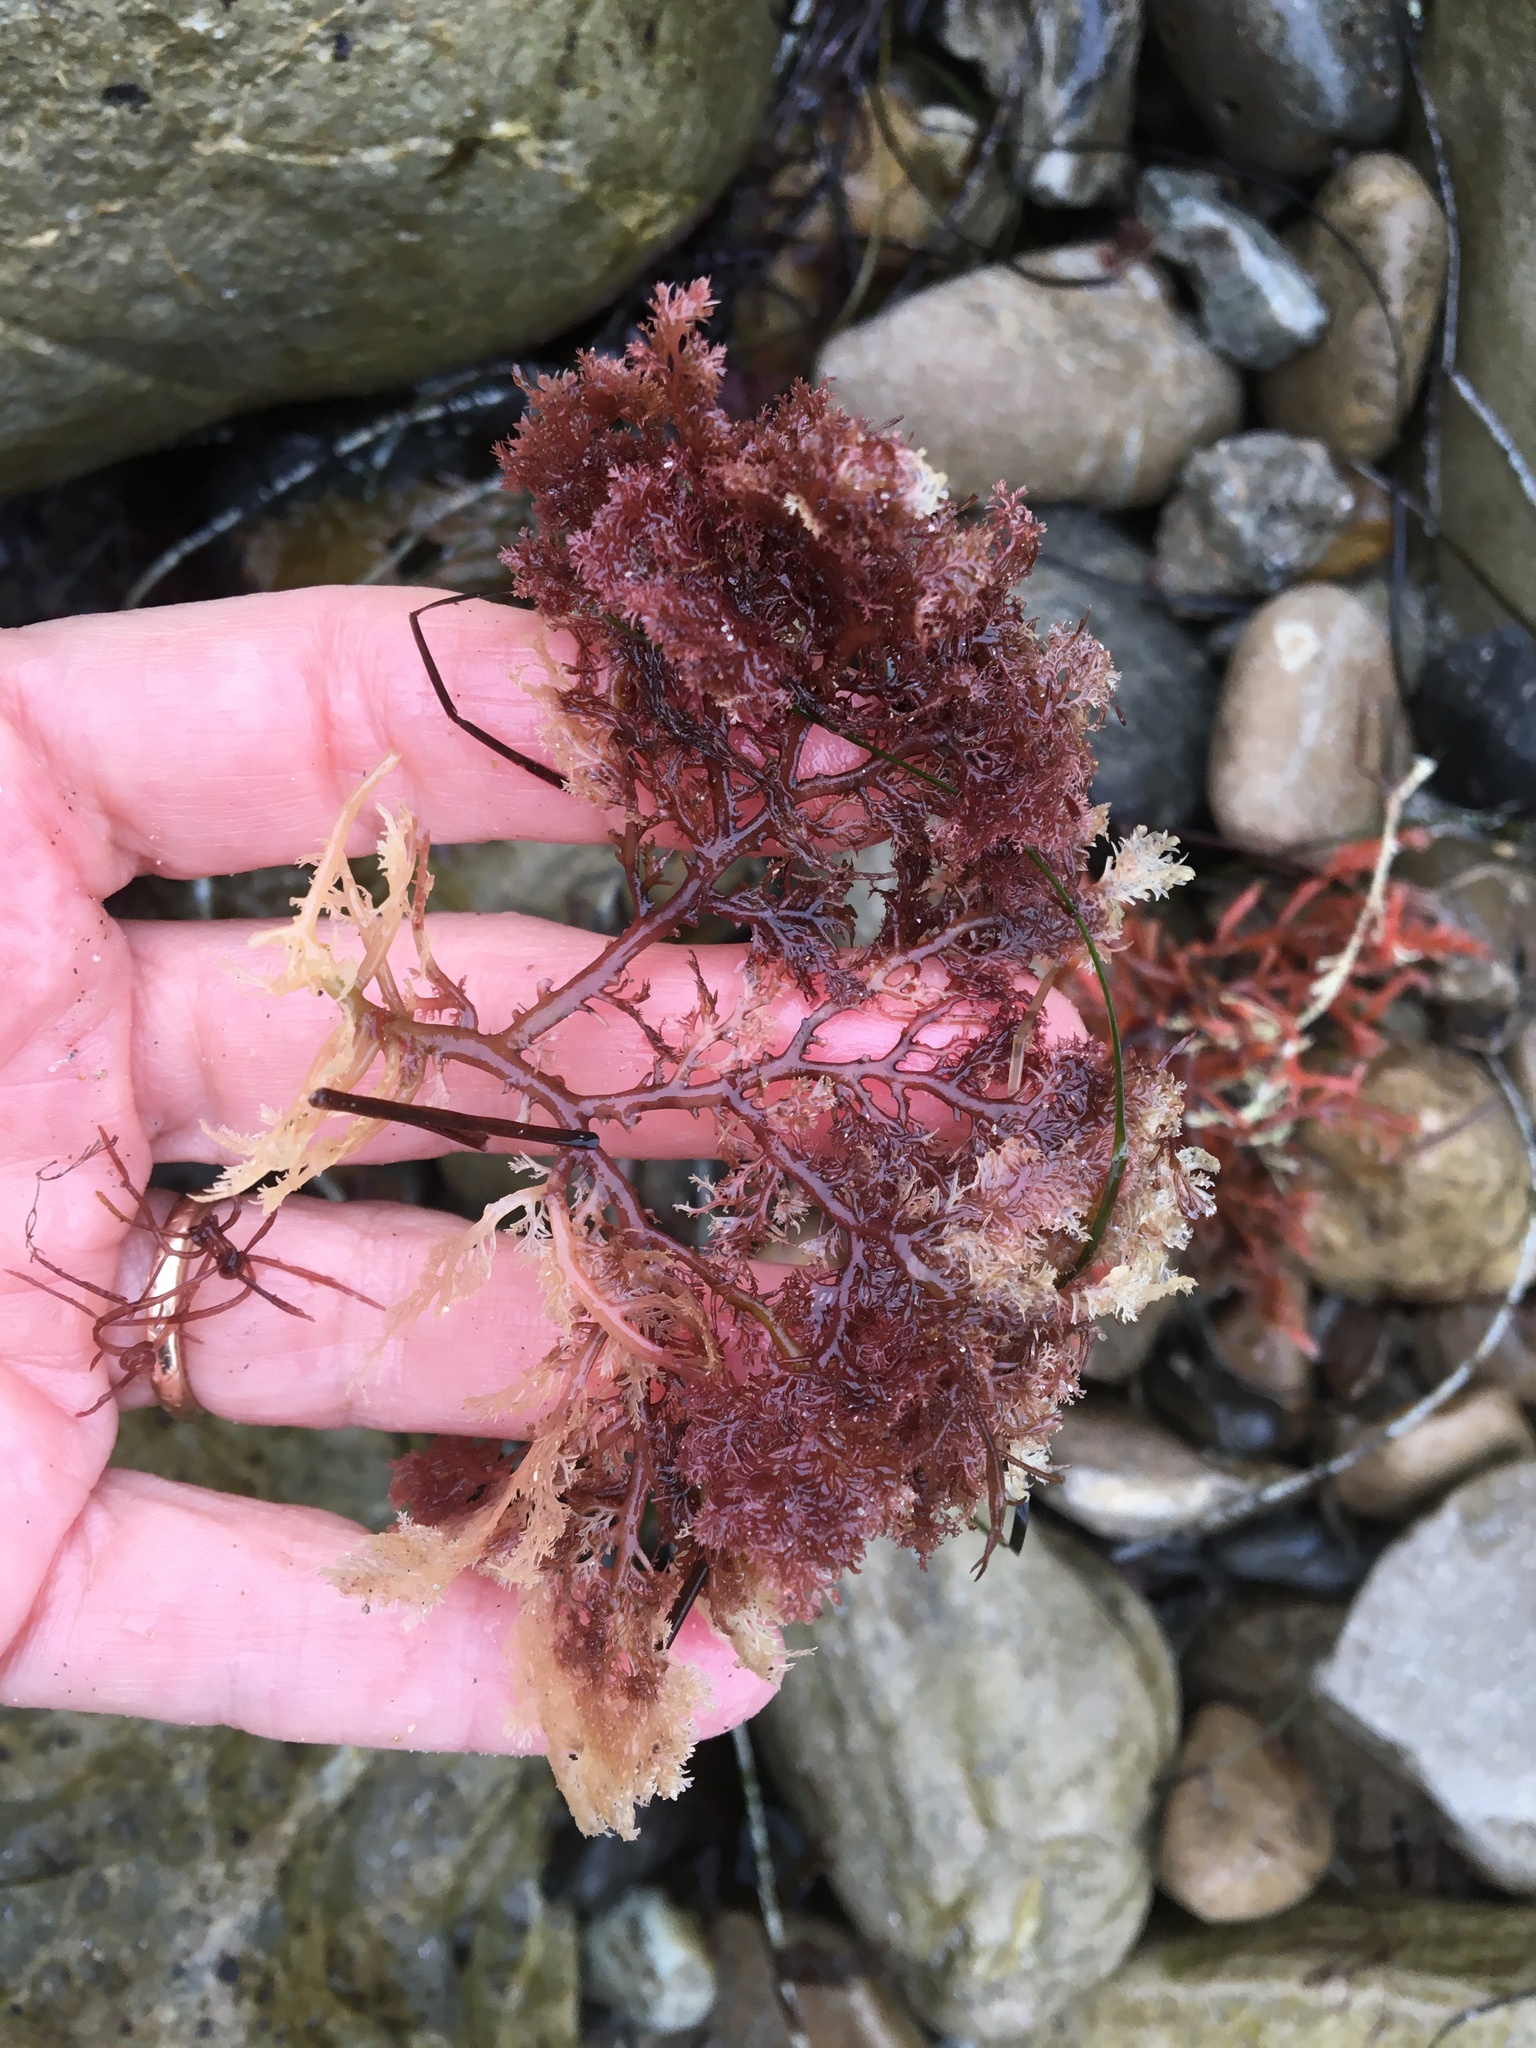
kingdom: Plantae
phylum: Rhodophyta
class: Florideophyceae
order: Plocamiales
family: Plocamiaceae
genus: Plocamium
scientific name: Plocamium cartilagineum
